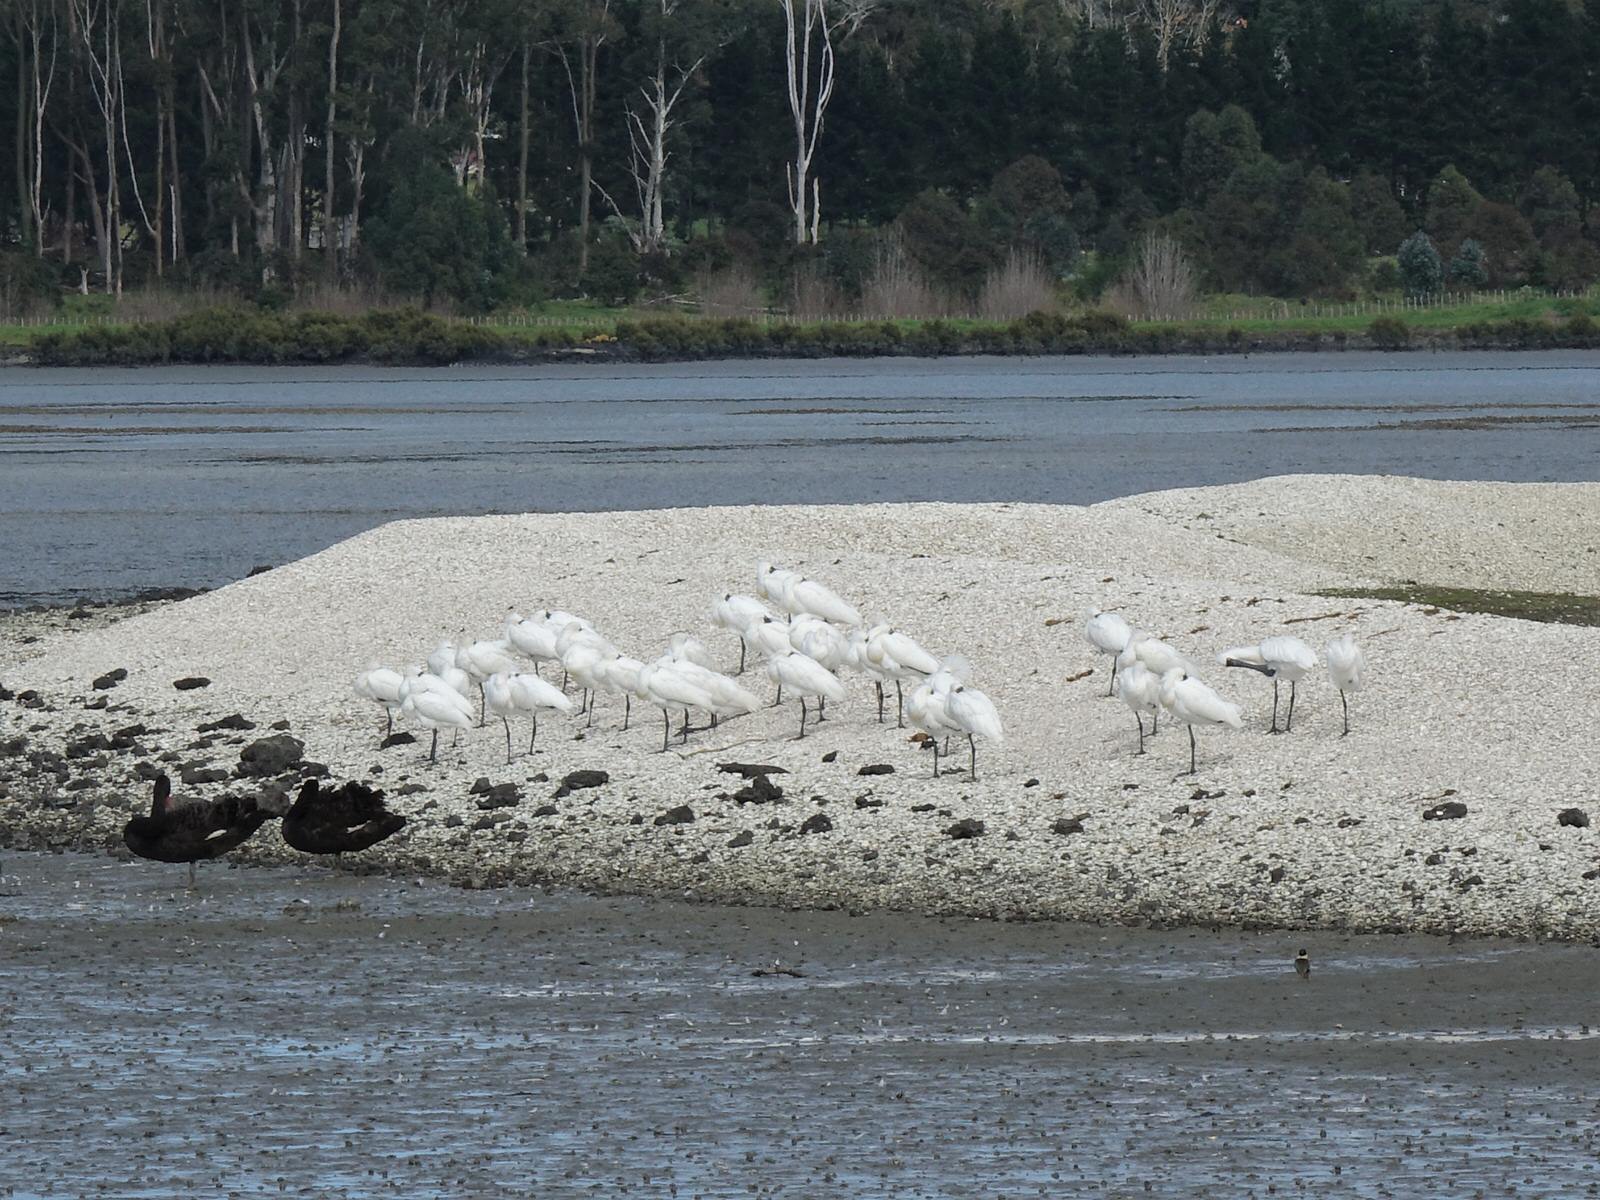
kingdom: Animalia
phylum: Chordata
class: Aves
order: Pelecaniformes
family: Threskiornithidae
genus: Platalea
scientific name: Platalea regia
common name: Royal spoonbill
